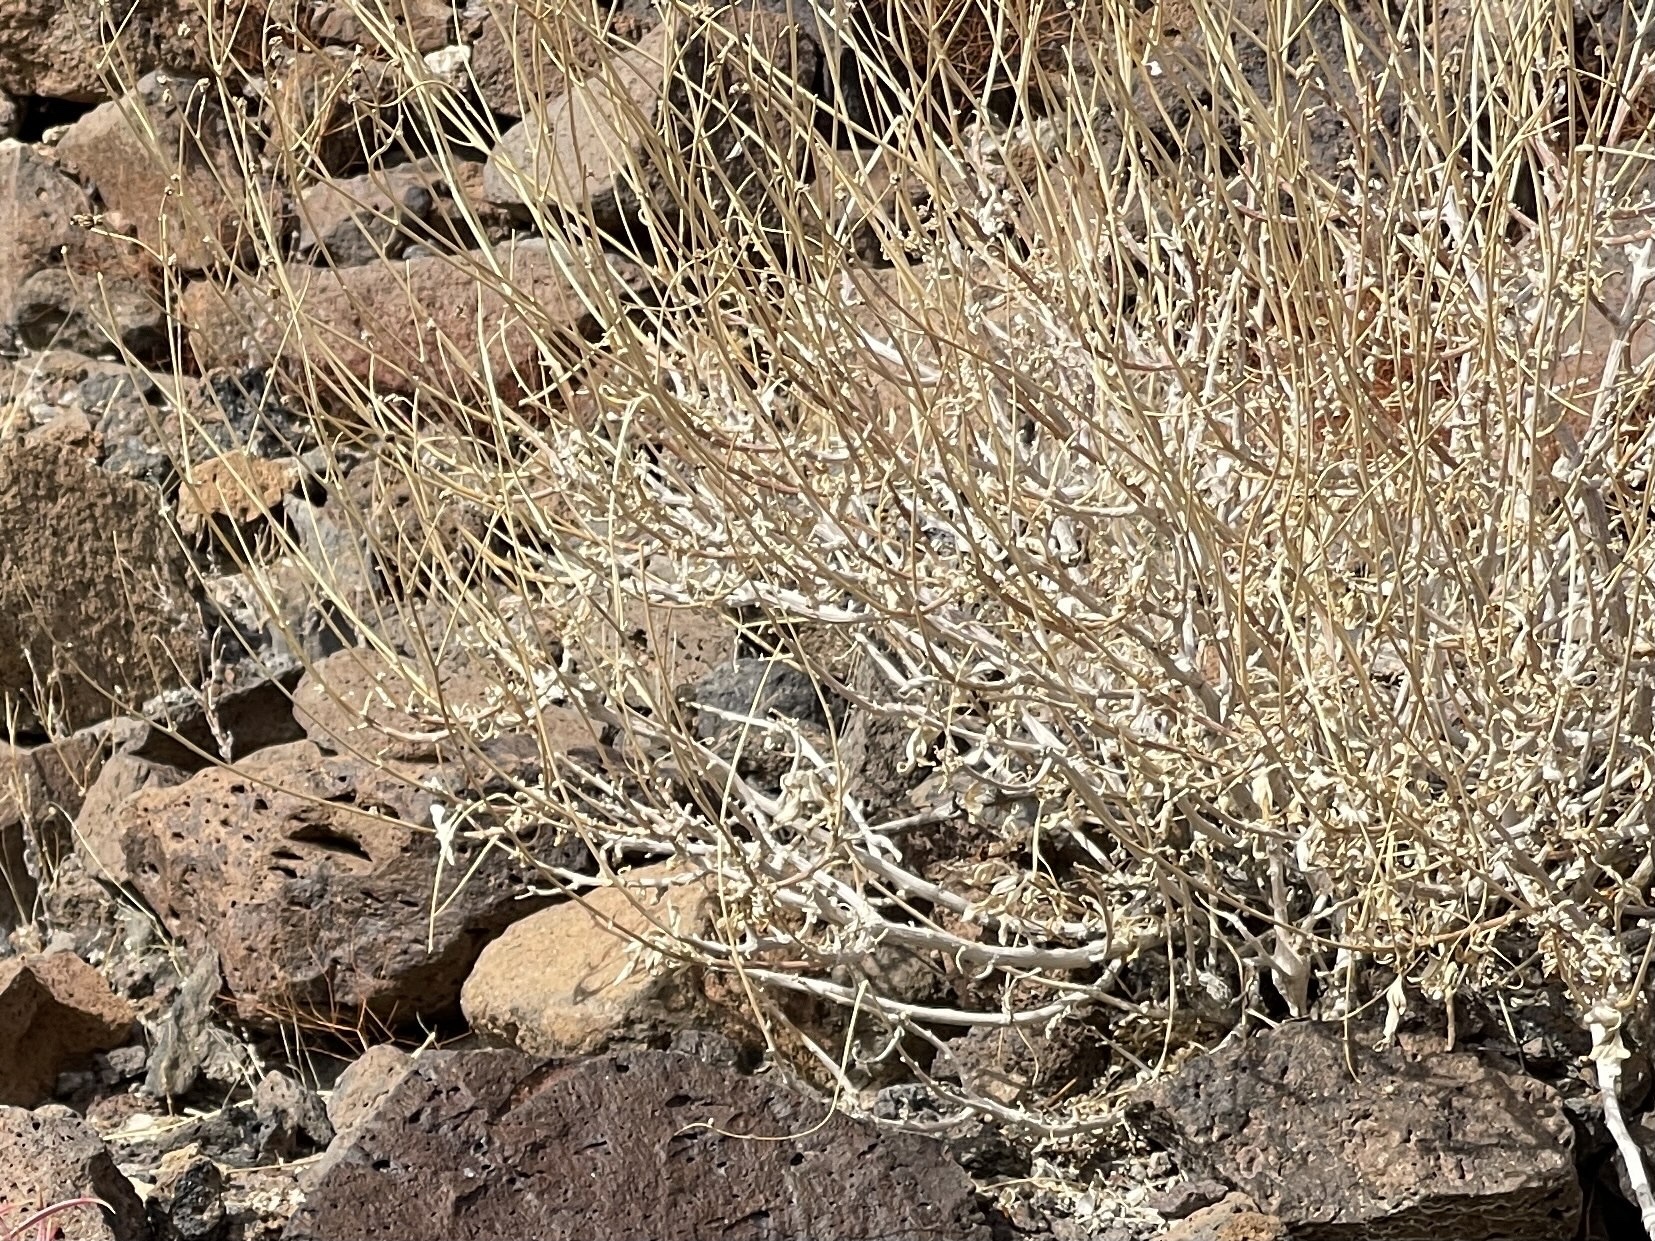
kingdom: Plantae
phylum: Tracheophyta
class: Magnoliopsida
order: Asterales
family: Asteraceae
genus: Encelia
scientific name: Encelia farinosa
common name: Brittlebush
